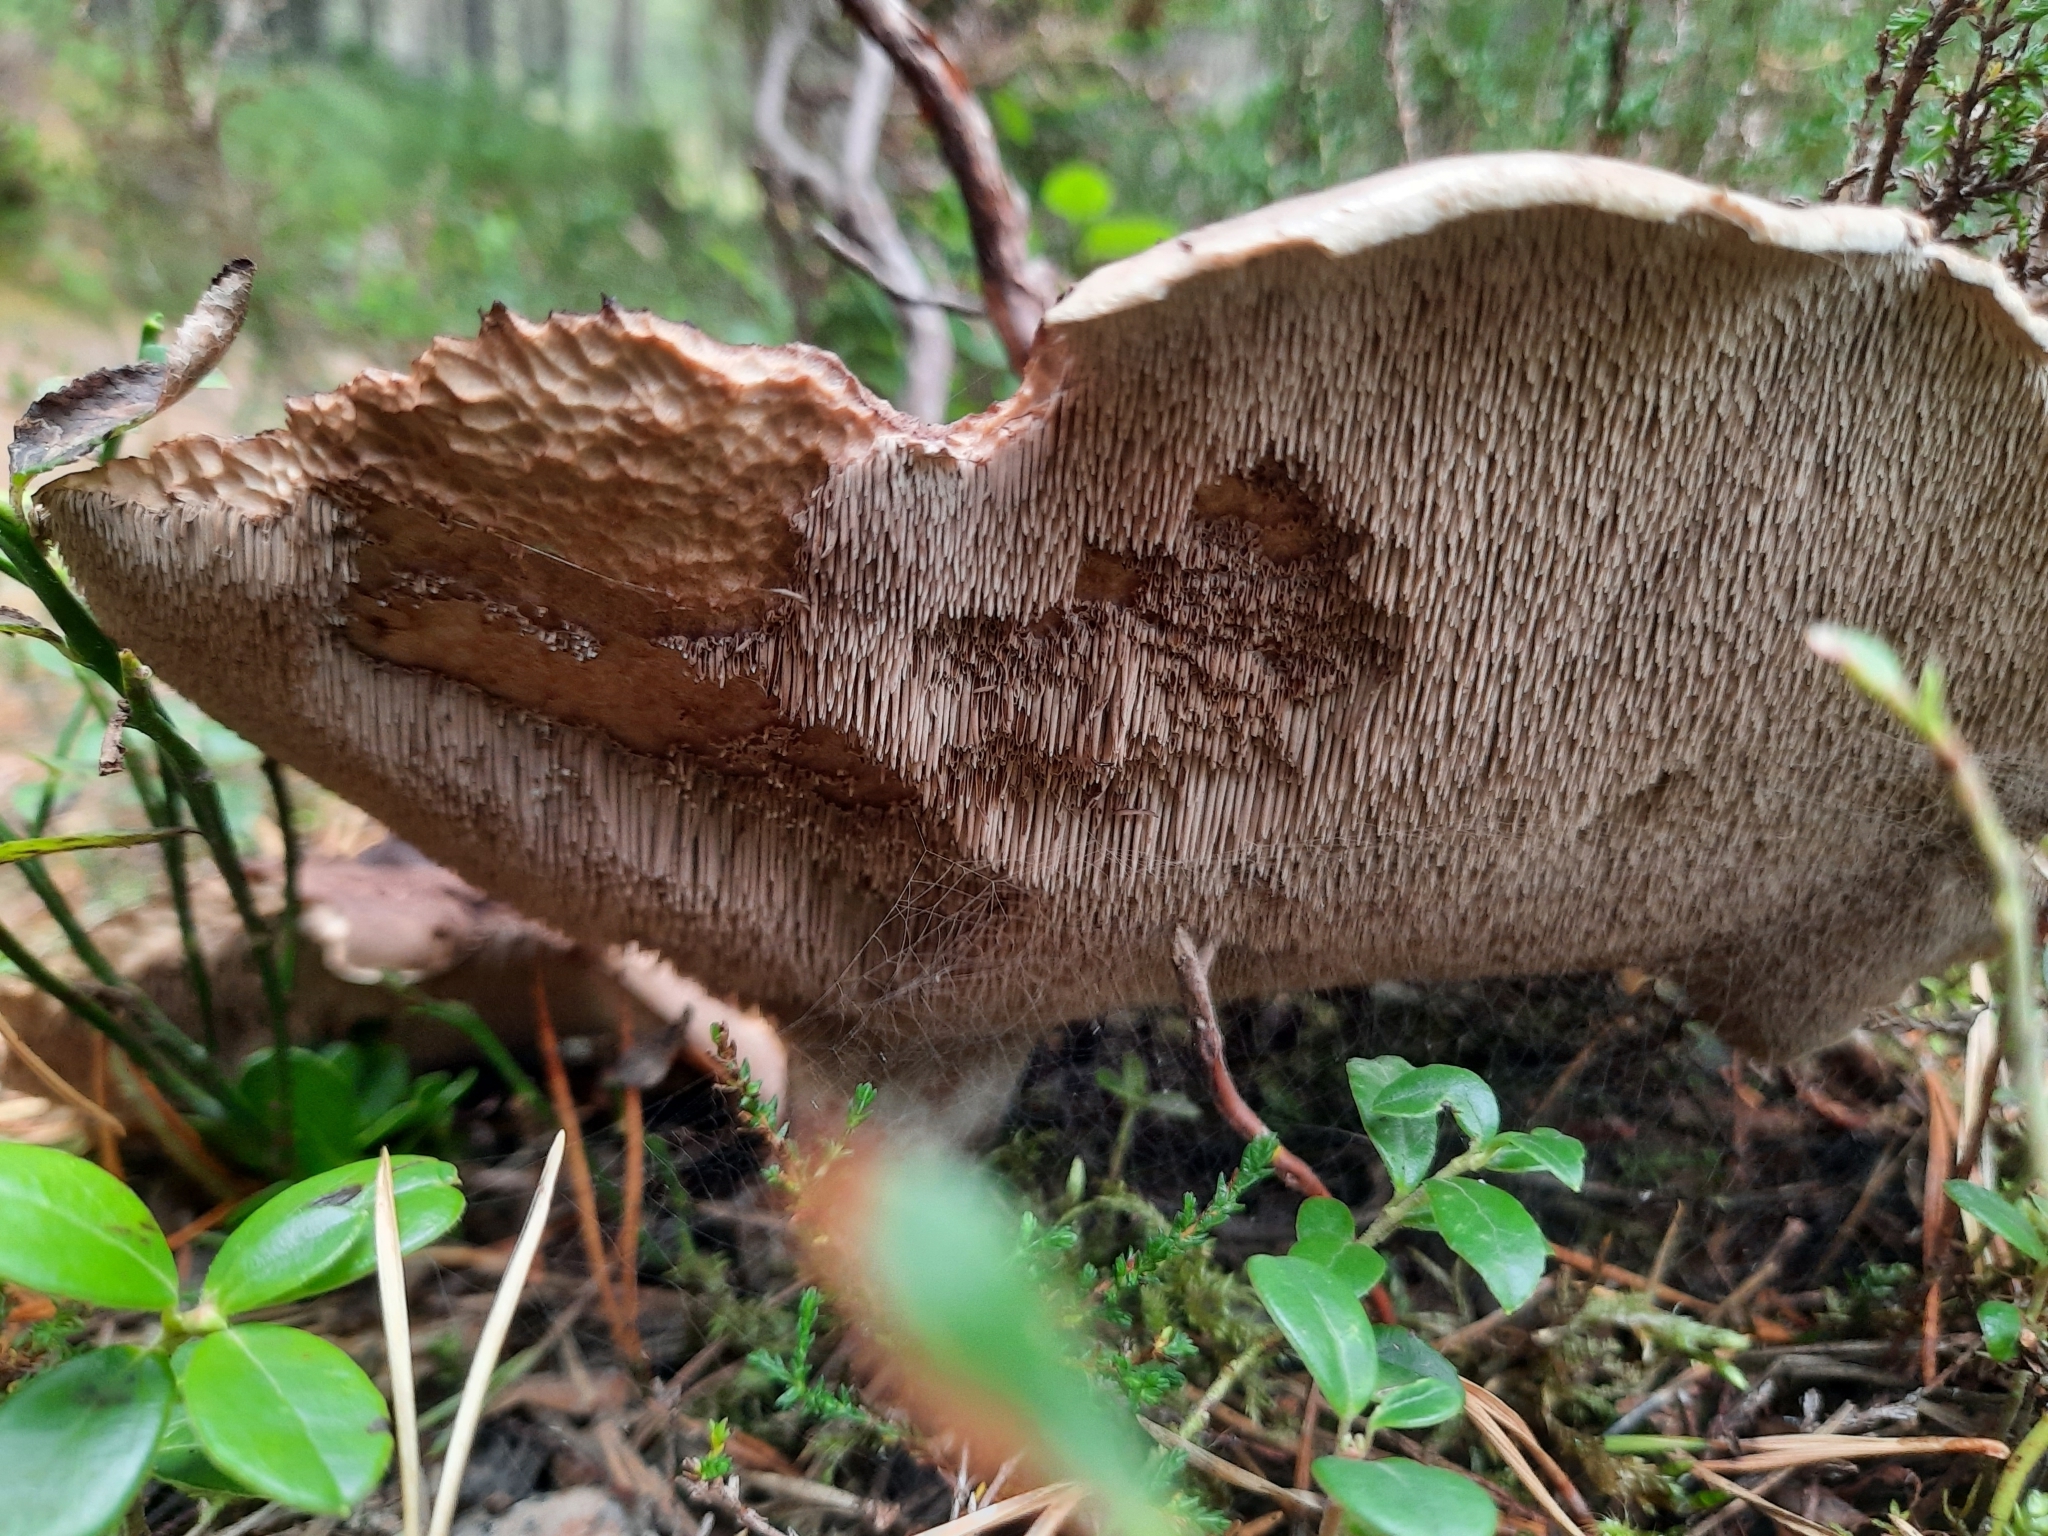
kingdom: Fungi
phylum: Basidiomycota
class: Agaricomycetes
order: Thelephorales
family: Bankeraceae
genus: Sarcodon
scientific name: Sarcodon squamosus
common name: Scaly tooth
